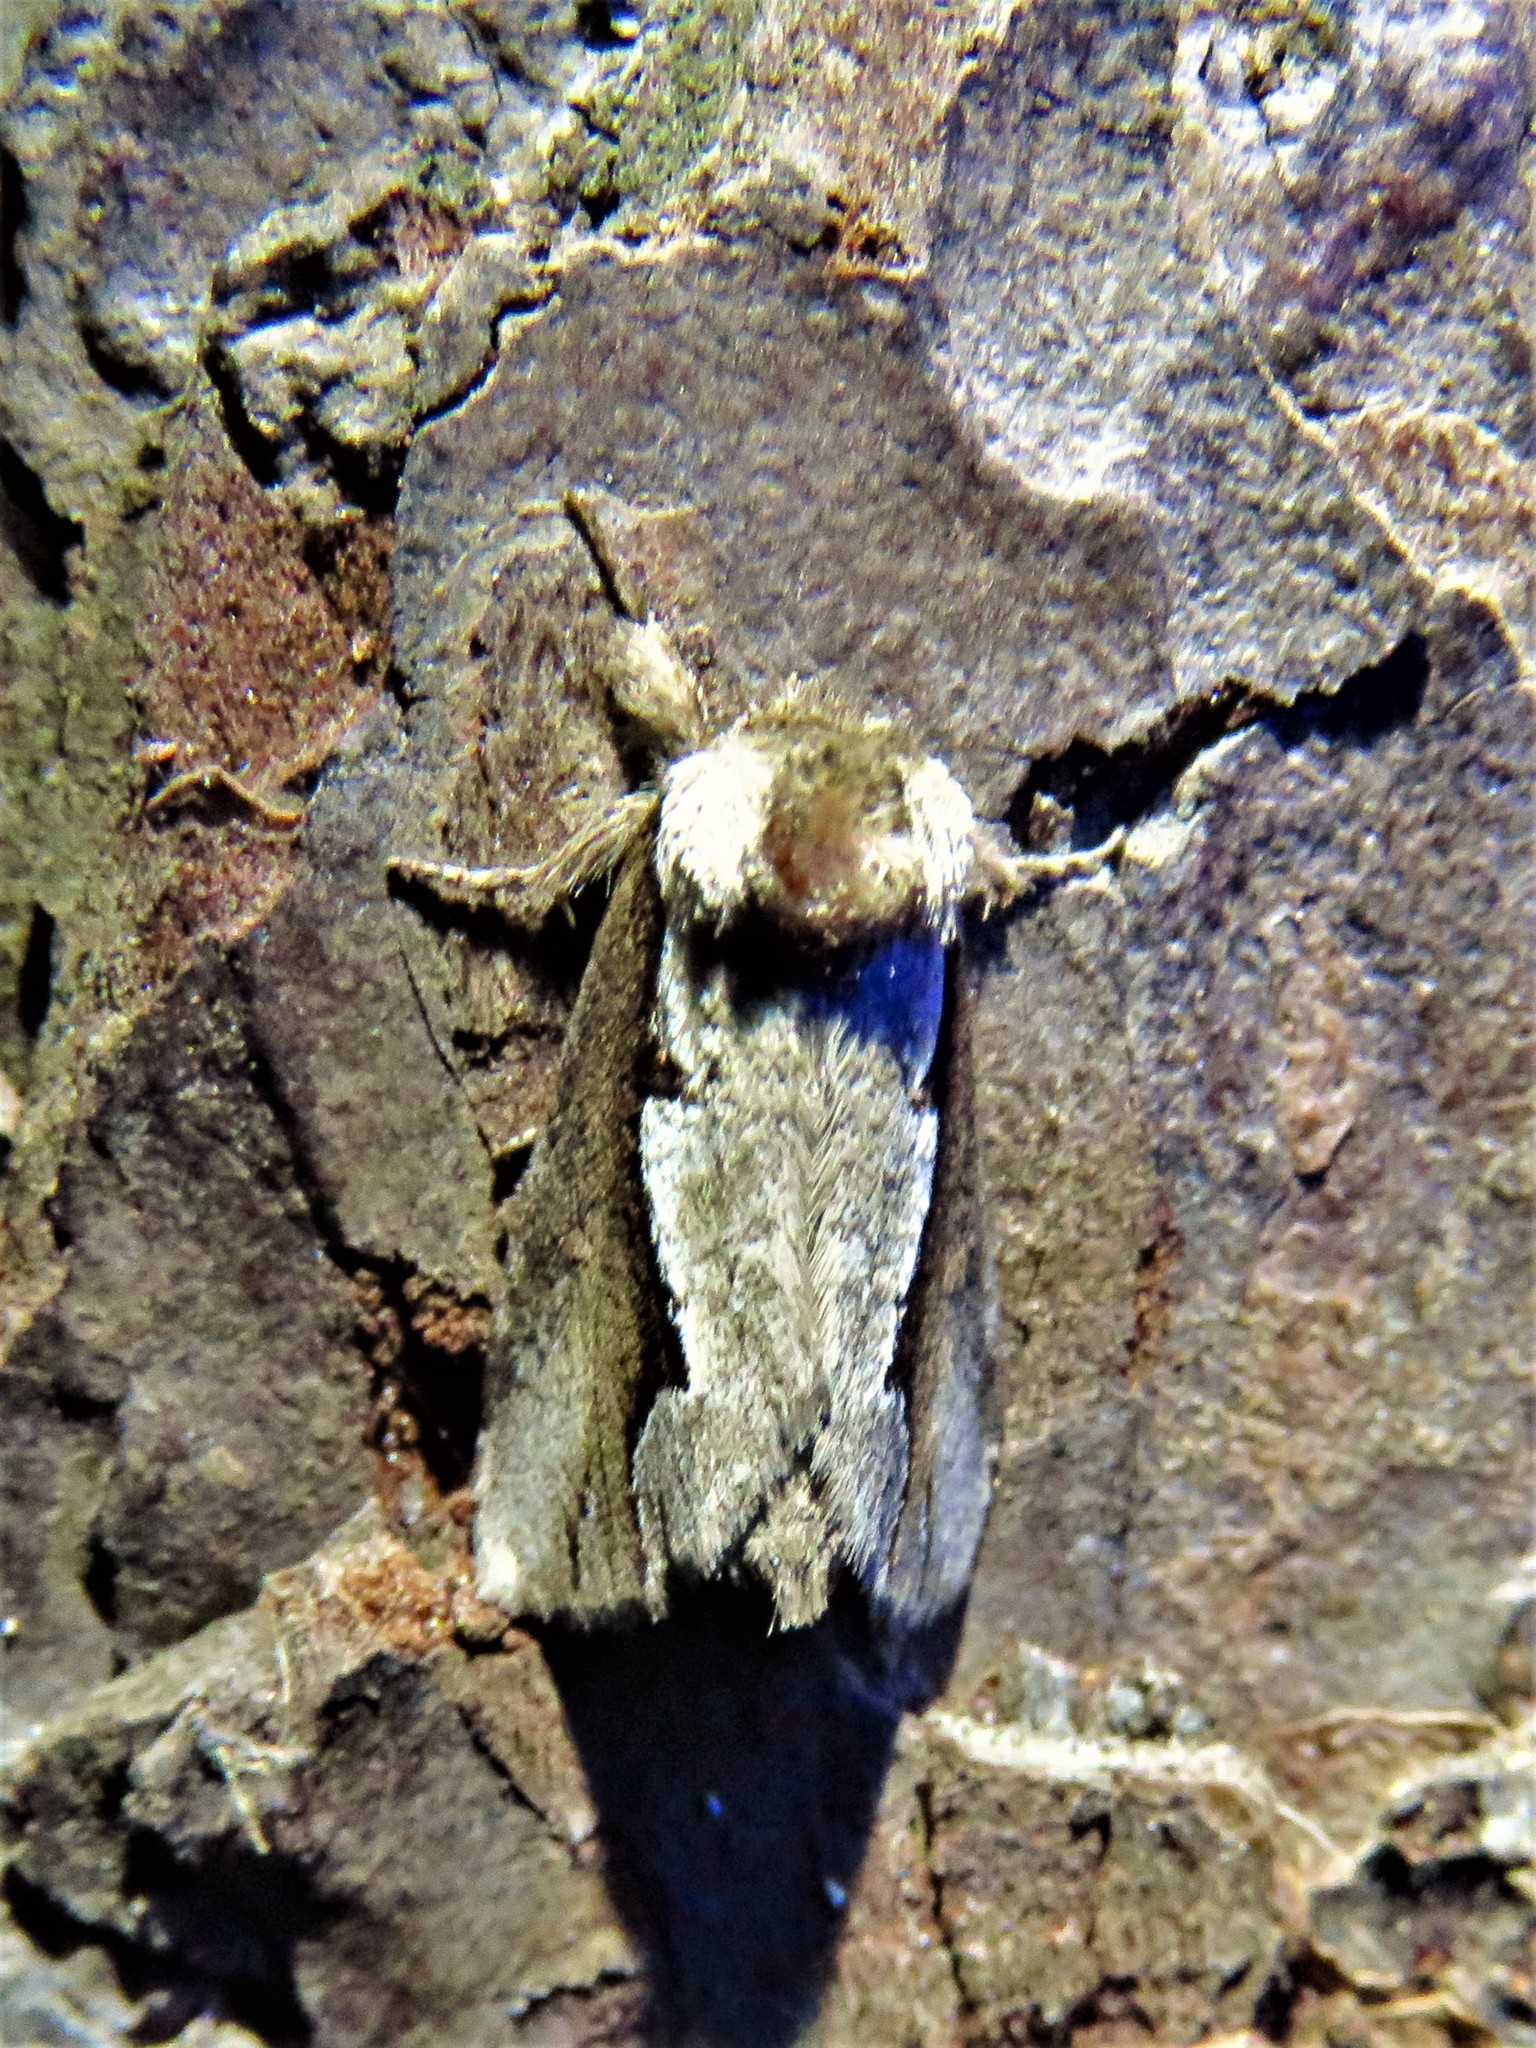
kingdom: Animalia
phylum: Arthropoda
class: Insecta
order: Lepidoptera
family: Notodontidae
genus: Nerice
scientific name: Nerice bidentata
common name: Double-toothed prominent
